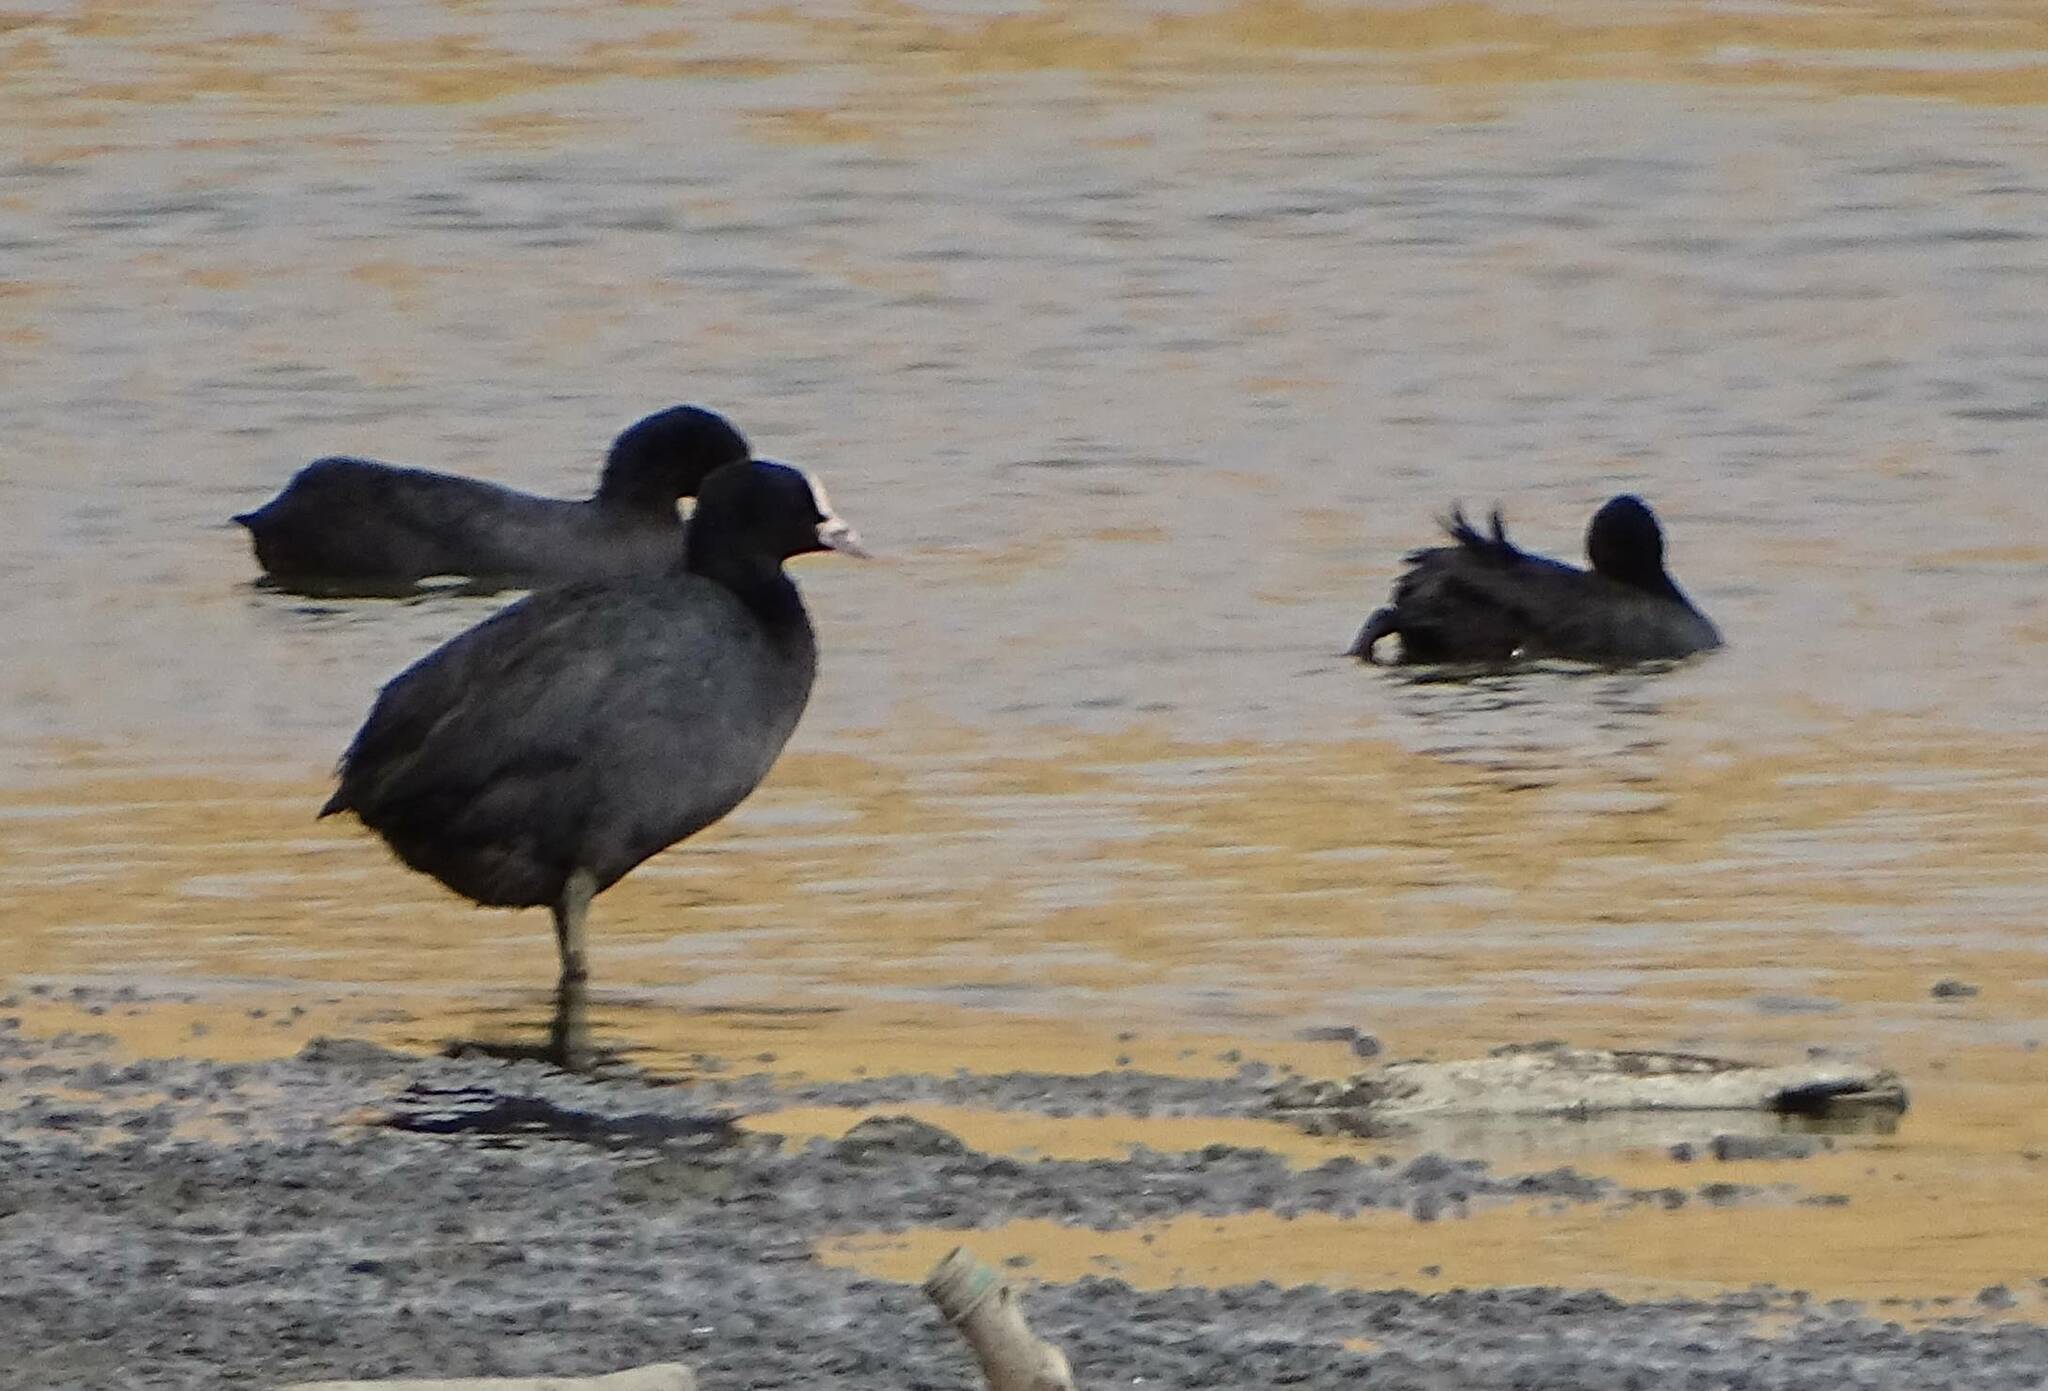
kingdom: Animalia
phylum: Chordata
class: Aves
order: Gruiformes
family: Rallidae
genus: Fulica
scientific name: Fulica atra
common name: Eurasian coot
